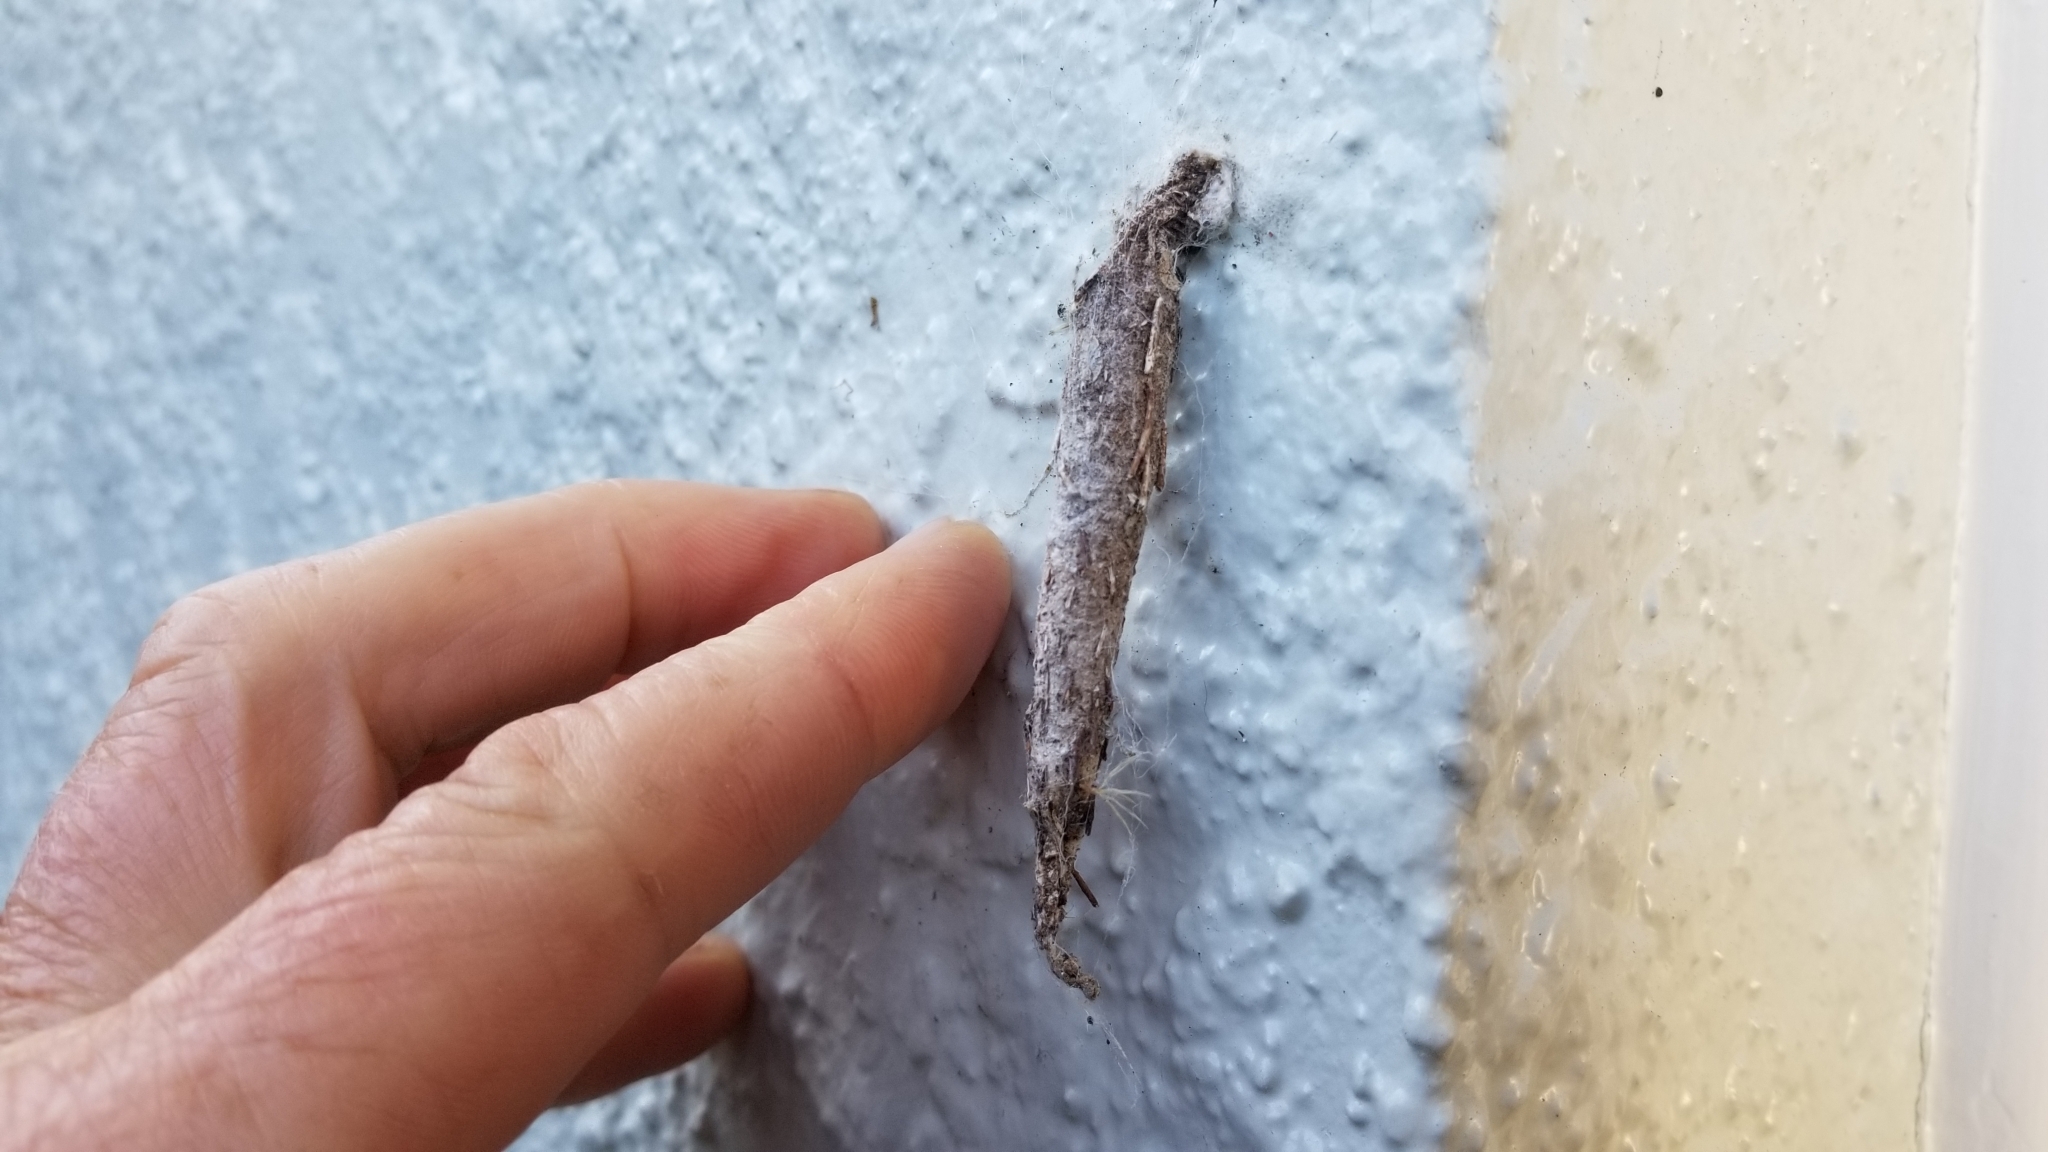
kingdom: Animalia
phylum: Arthropoda
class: Insecta
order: Lepidoptera
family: Psychidae
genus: Liothula
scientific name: Liothula omnivora
